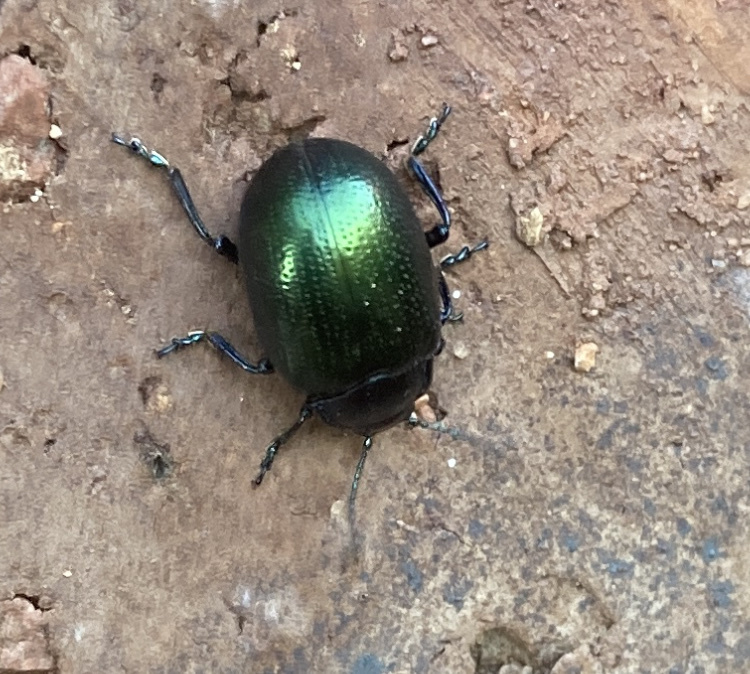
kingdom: Animalia
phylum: Arthropoda
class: Insecta
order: Coleoptera
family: Chrysomelidae
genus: Chrysolina
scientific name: Chrysolina auripennis
